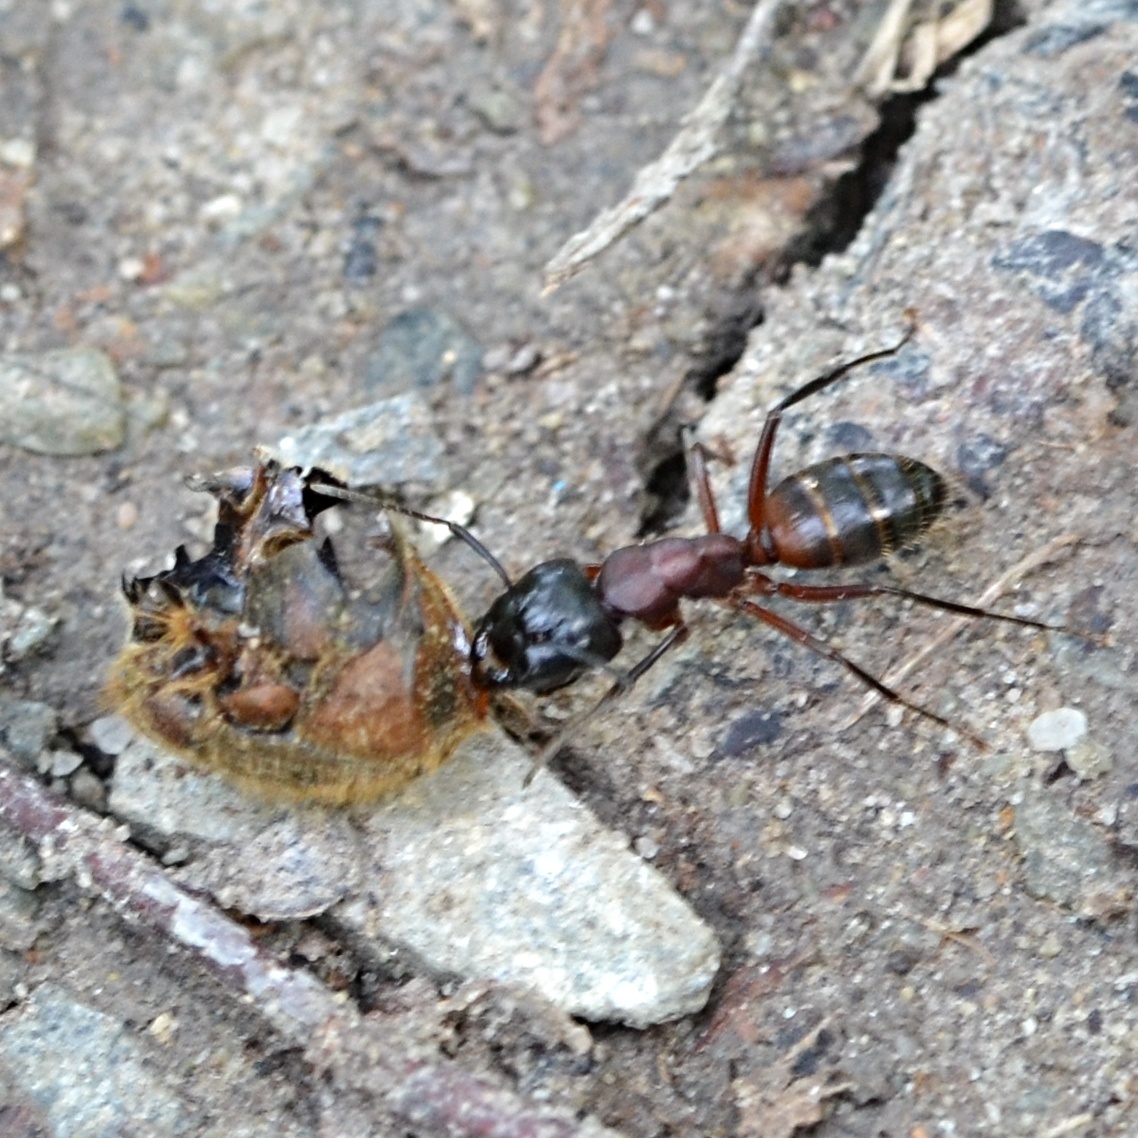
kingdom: Animalia
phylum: Arthropoda
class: Insecta
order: Hymenoptera
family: Formicidae
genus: Camponotus
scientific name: Camponotus ligniperdus
